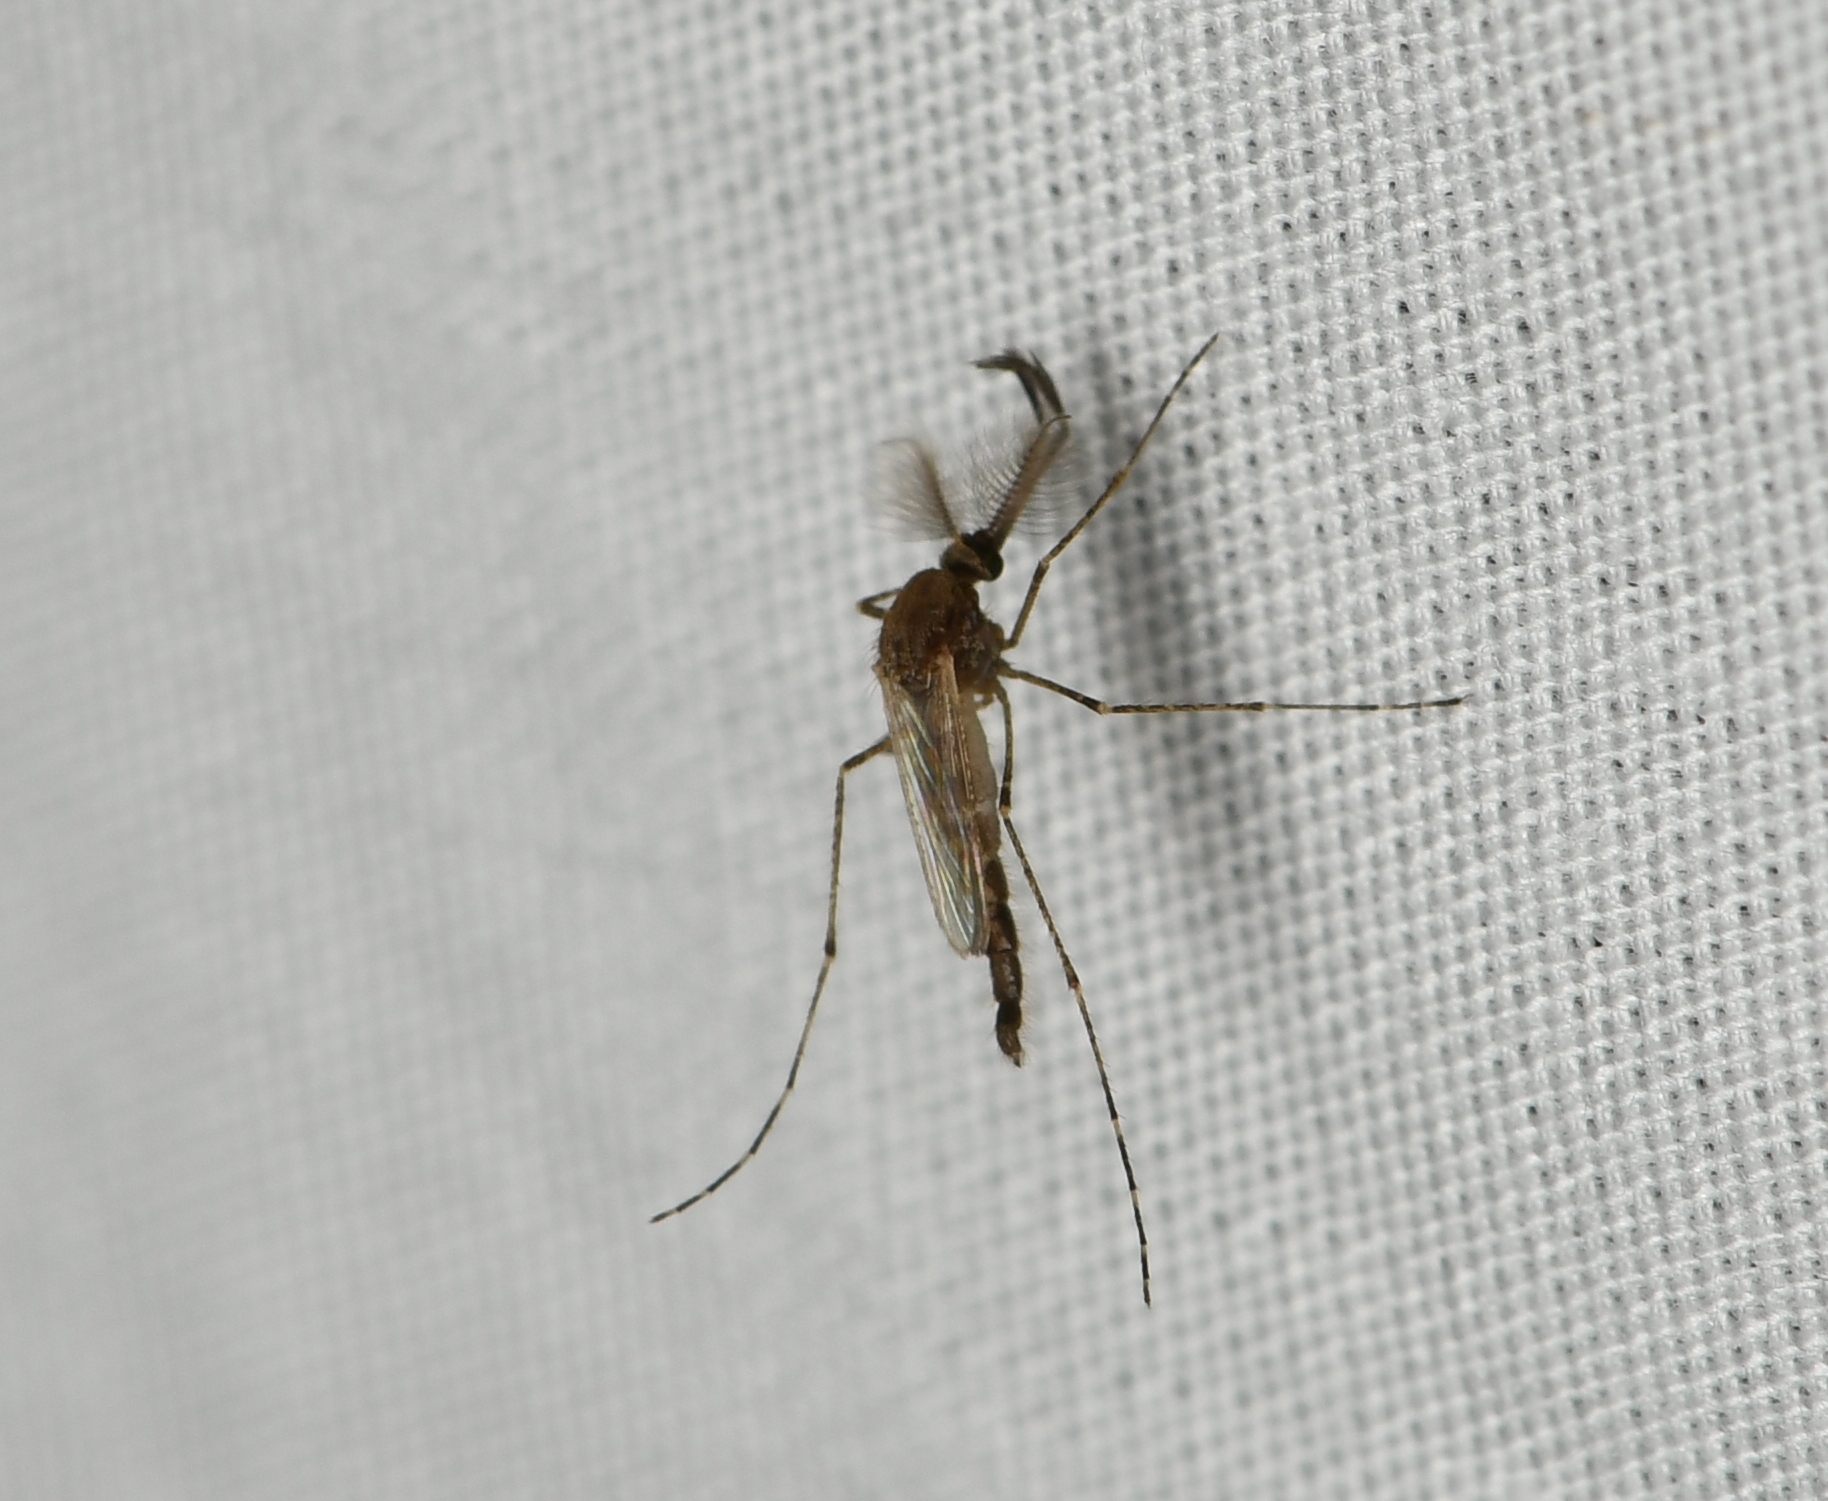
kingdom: Animalia
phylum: Arthropoda
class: Insecta
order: Diptera
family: Culicidae
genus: Psorophora
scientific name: Psorophora columbiae
